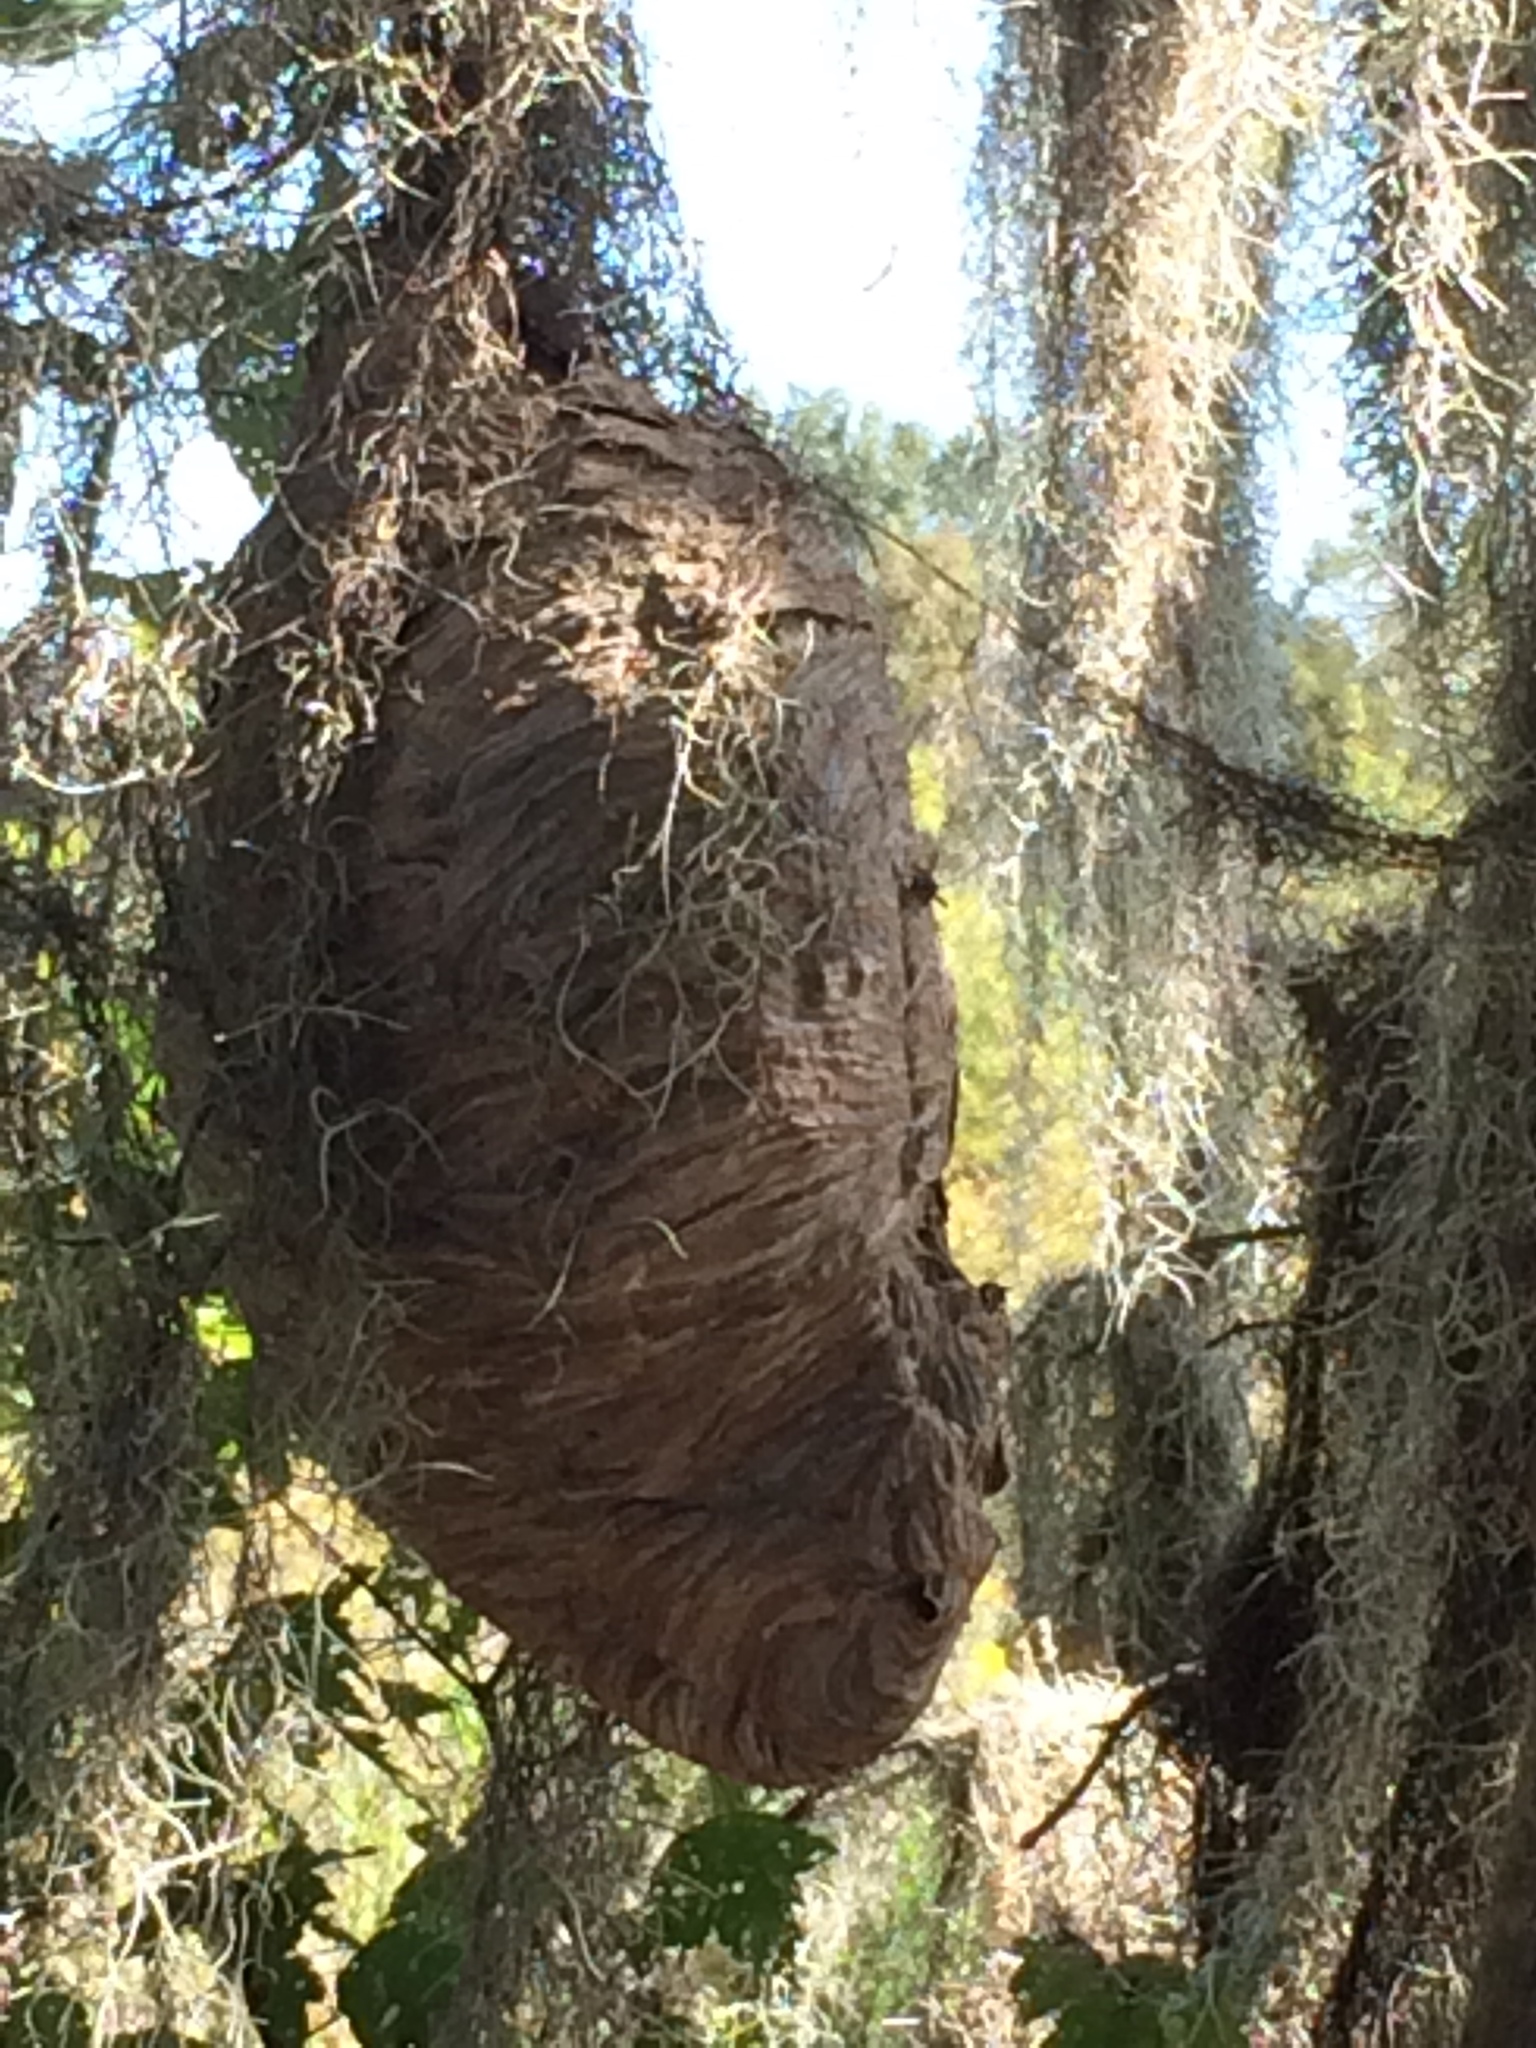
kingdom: Animalia
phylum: Arthropoda
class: Insecta
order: Hymenoptera
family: Vespidae
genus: Dolichovespula
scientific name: Dolichovespula maculata
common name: Bald-faced hornet
